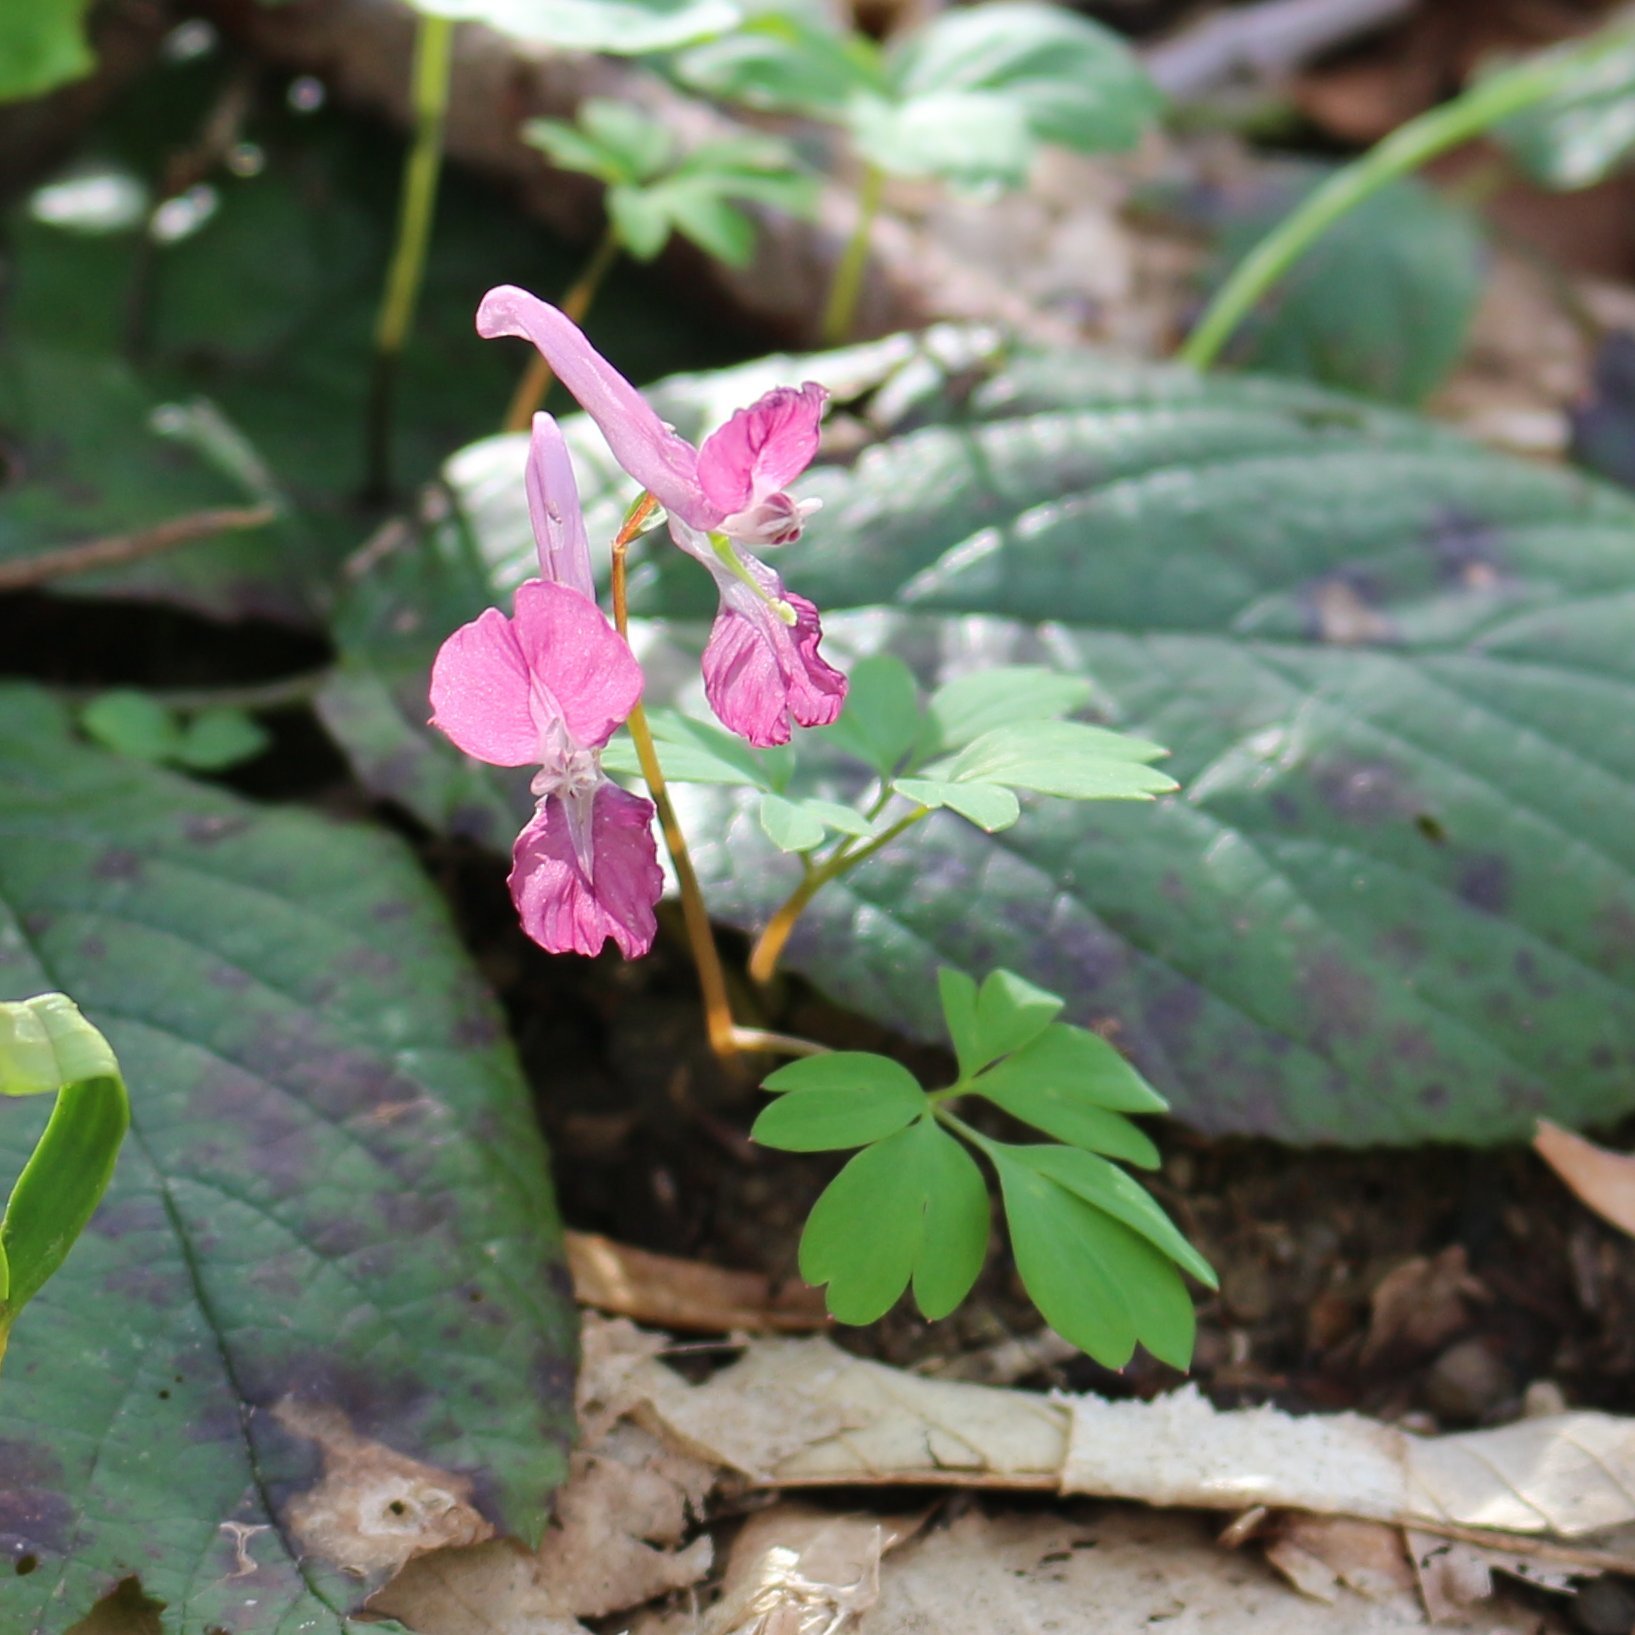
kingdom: Plantae
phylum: Tracheophyta
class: Magnoliopsida
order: Ranunculales
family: Papaveraceae
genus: Corydalis
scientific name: Corydalis caucasica
